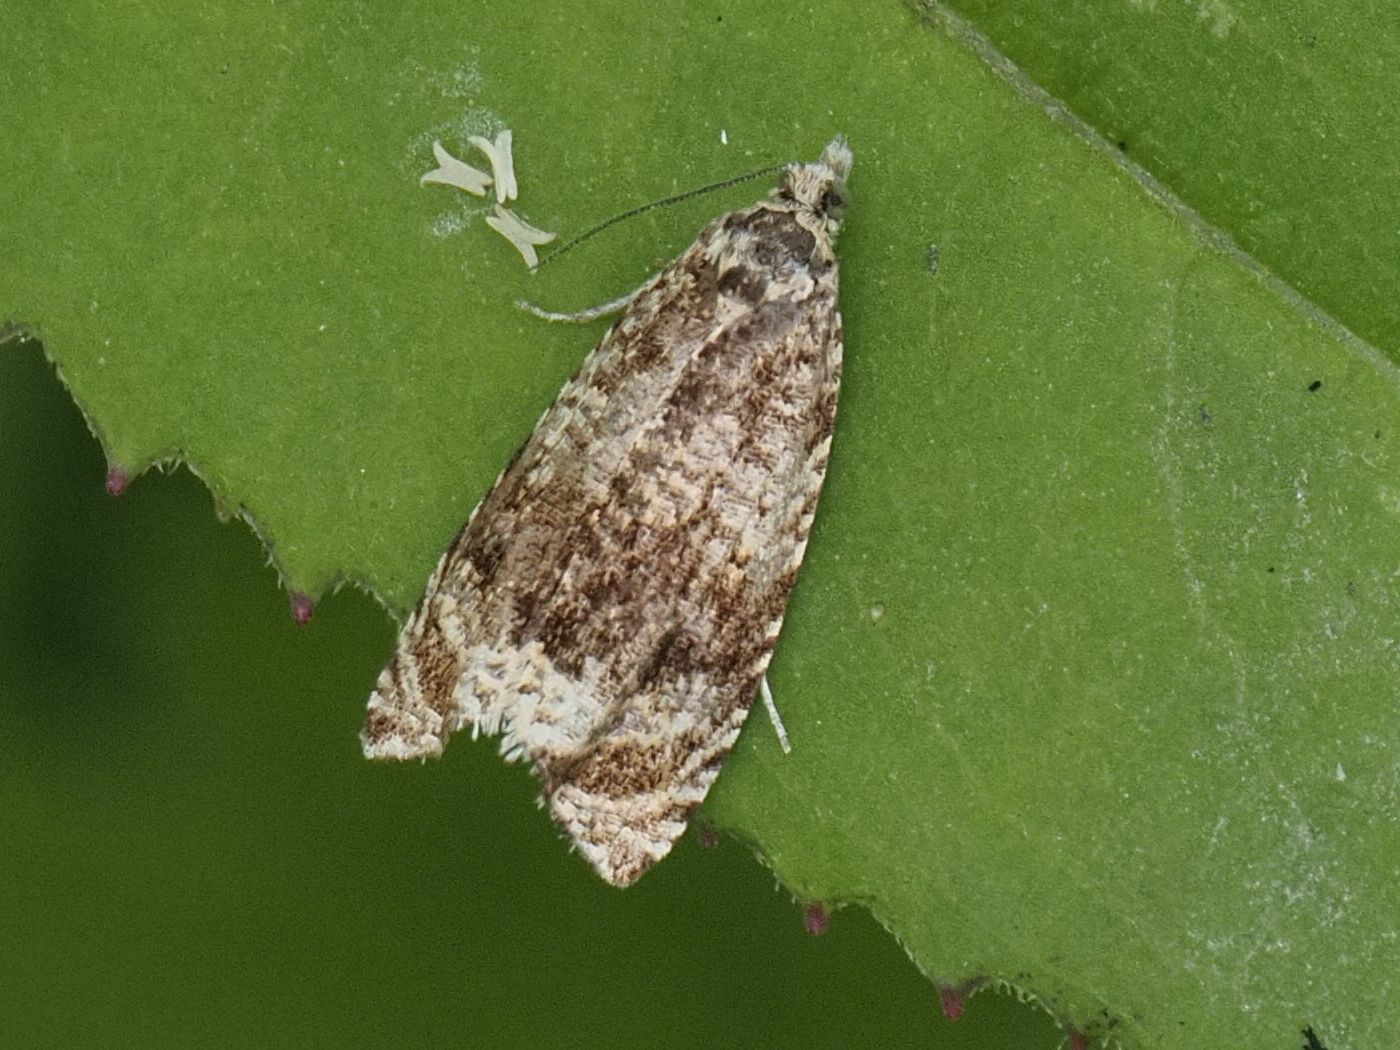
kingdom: Animalia
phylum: Arthropoda
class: Insecta
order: Lepidoptera
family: Tortricidae
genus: Syricoris
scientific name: Syricoris lacunana
